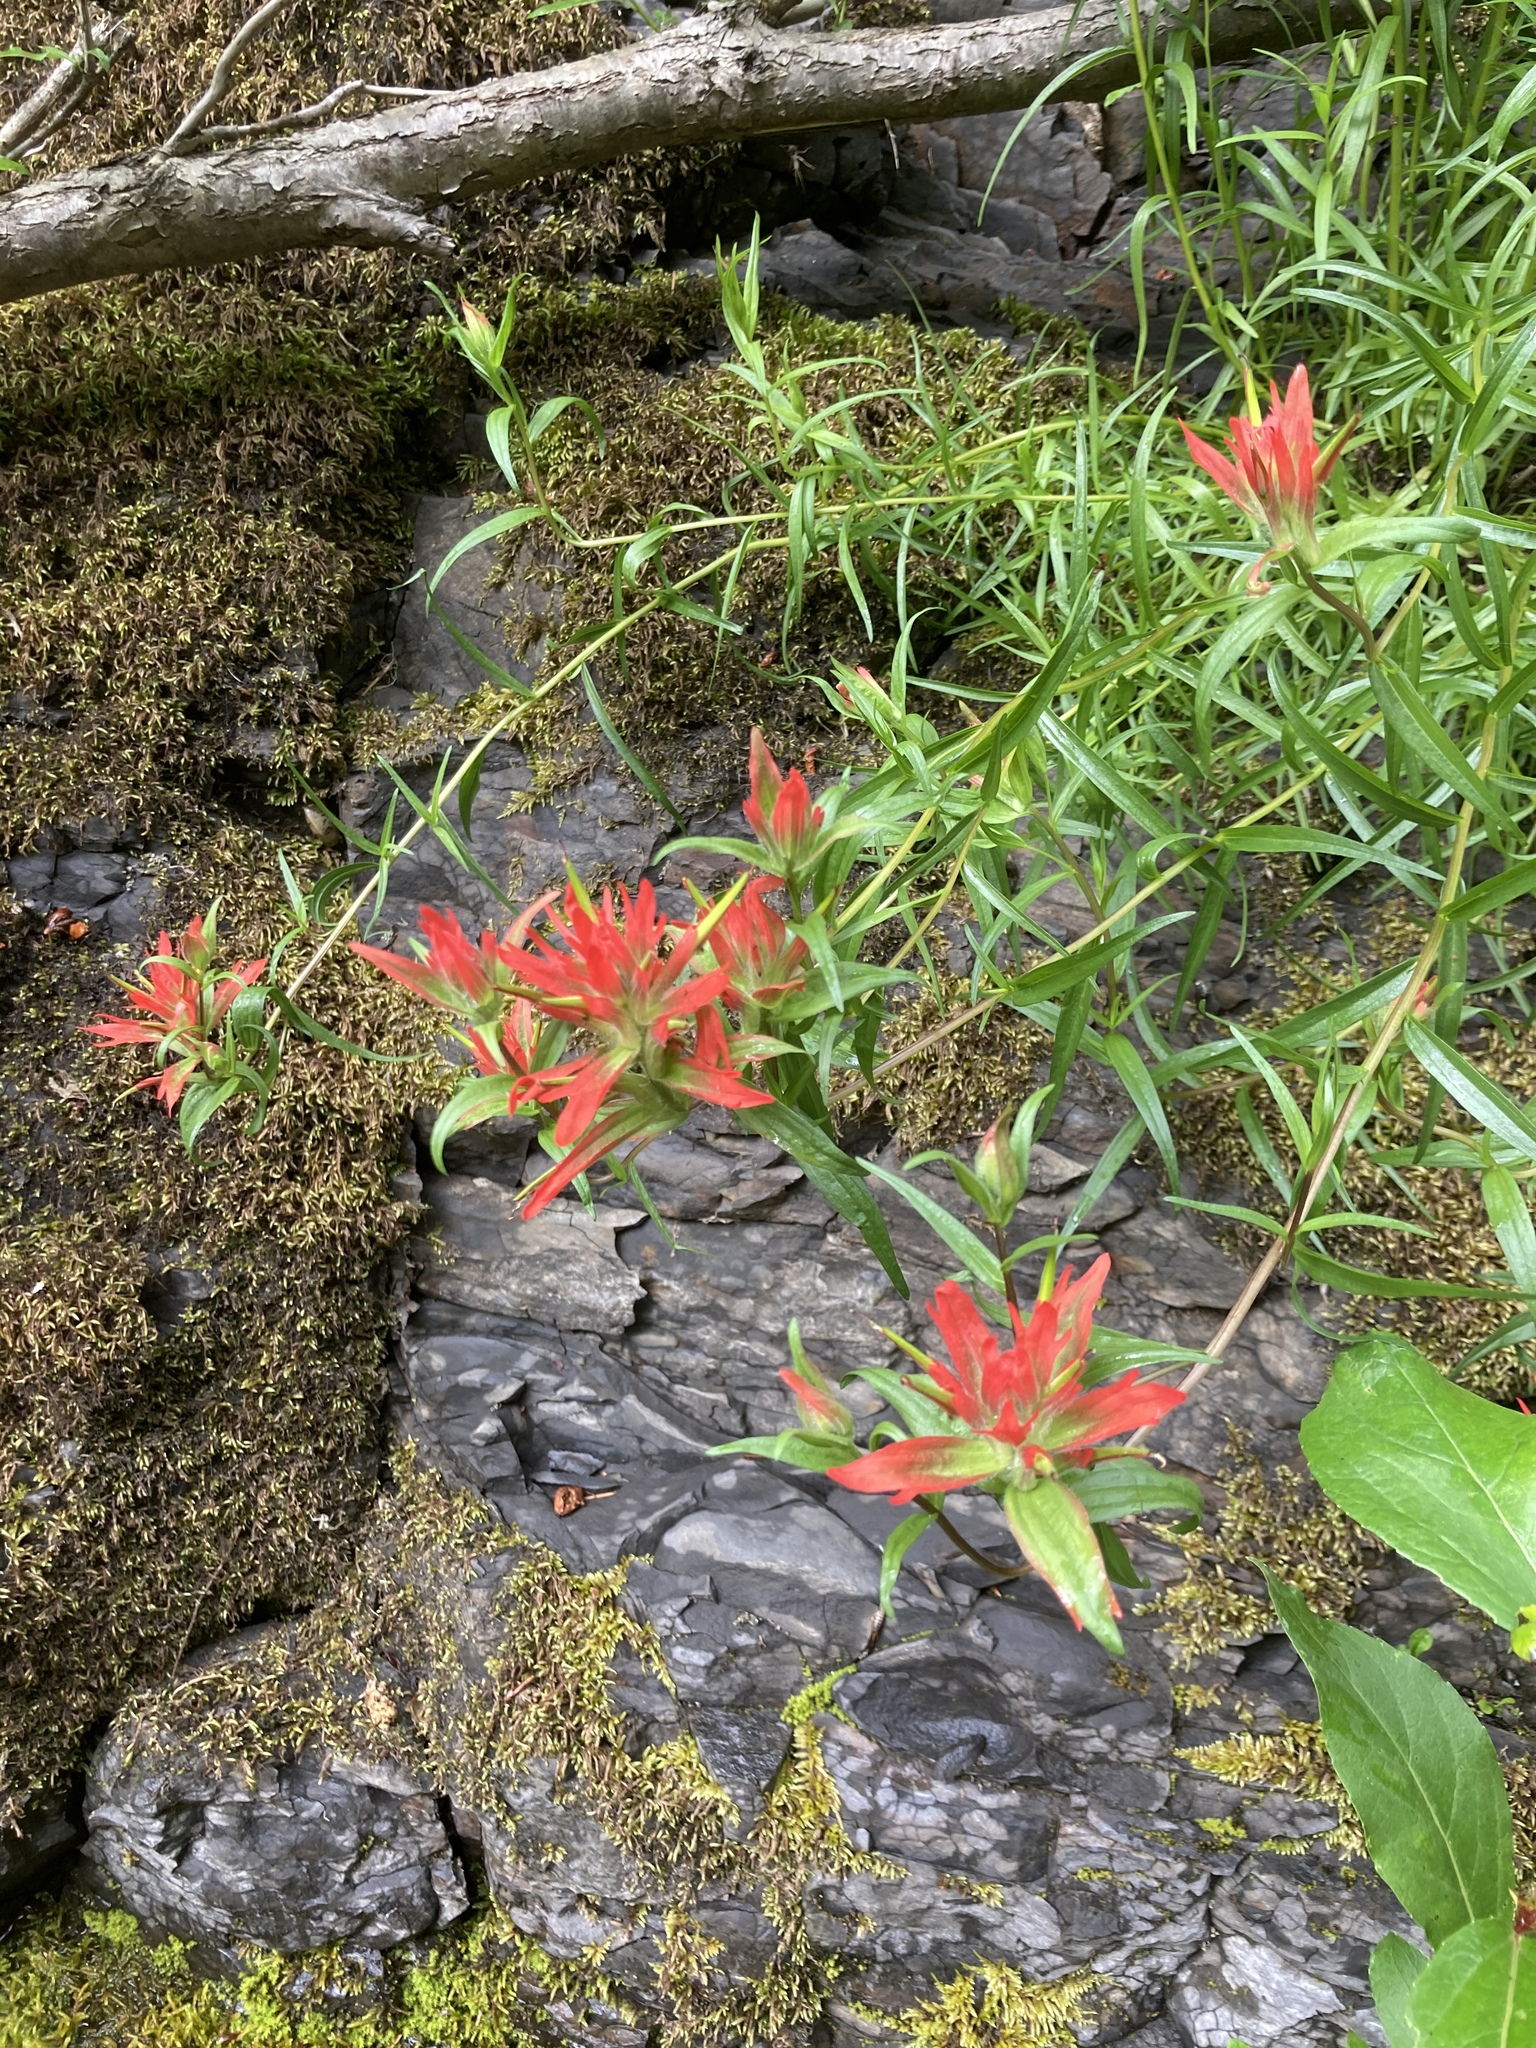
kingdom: Plantae
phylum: Tracheophyta
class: Magnoliopsida
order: Lamiales
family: Orobanchaceae
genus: Castilleja
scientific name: Castilleja miniata
